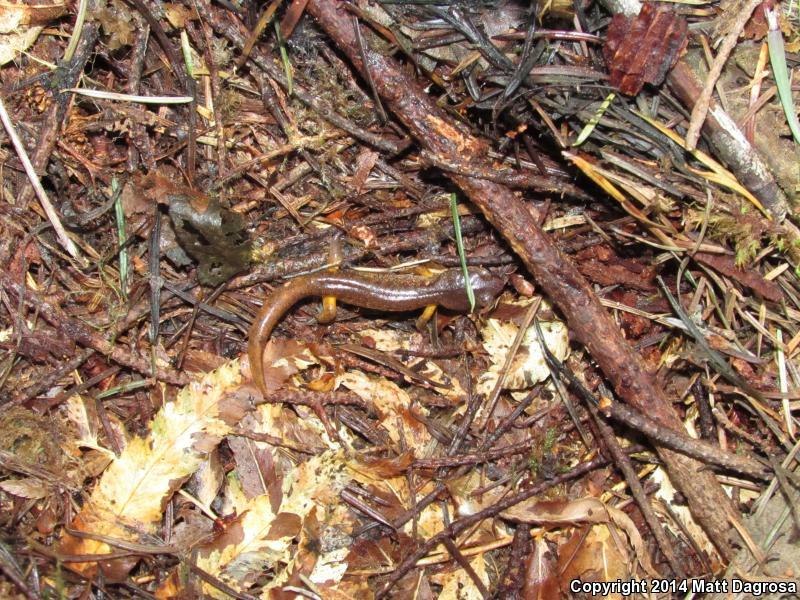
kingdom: Animalia
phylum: Chordata
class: Amphibia
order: Caudata
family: Plethodontidae
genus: Ensatina
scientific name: Ensatina eschscholtzii
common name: Ensatina
